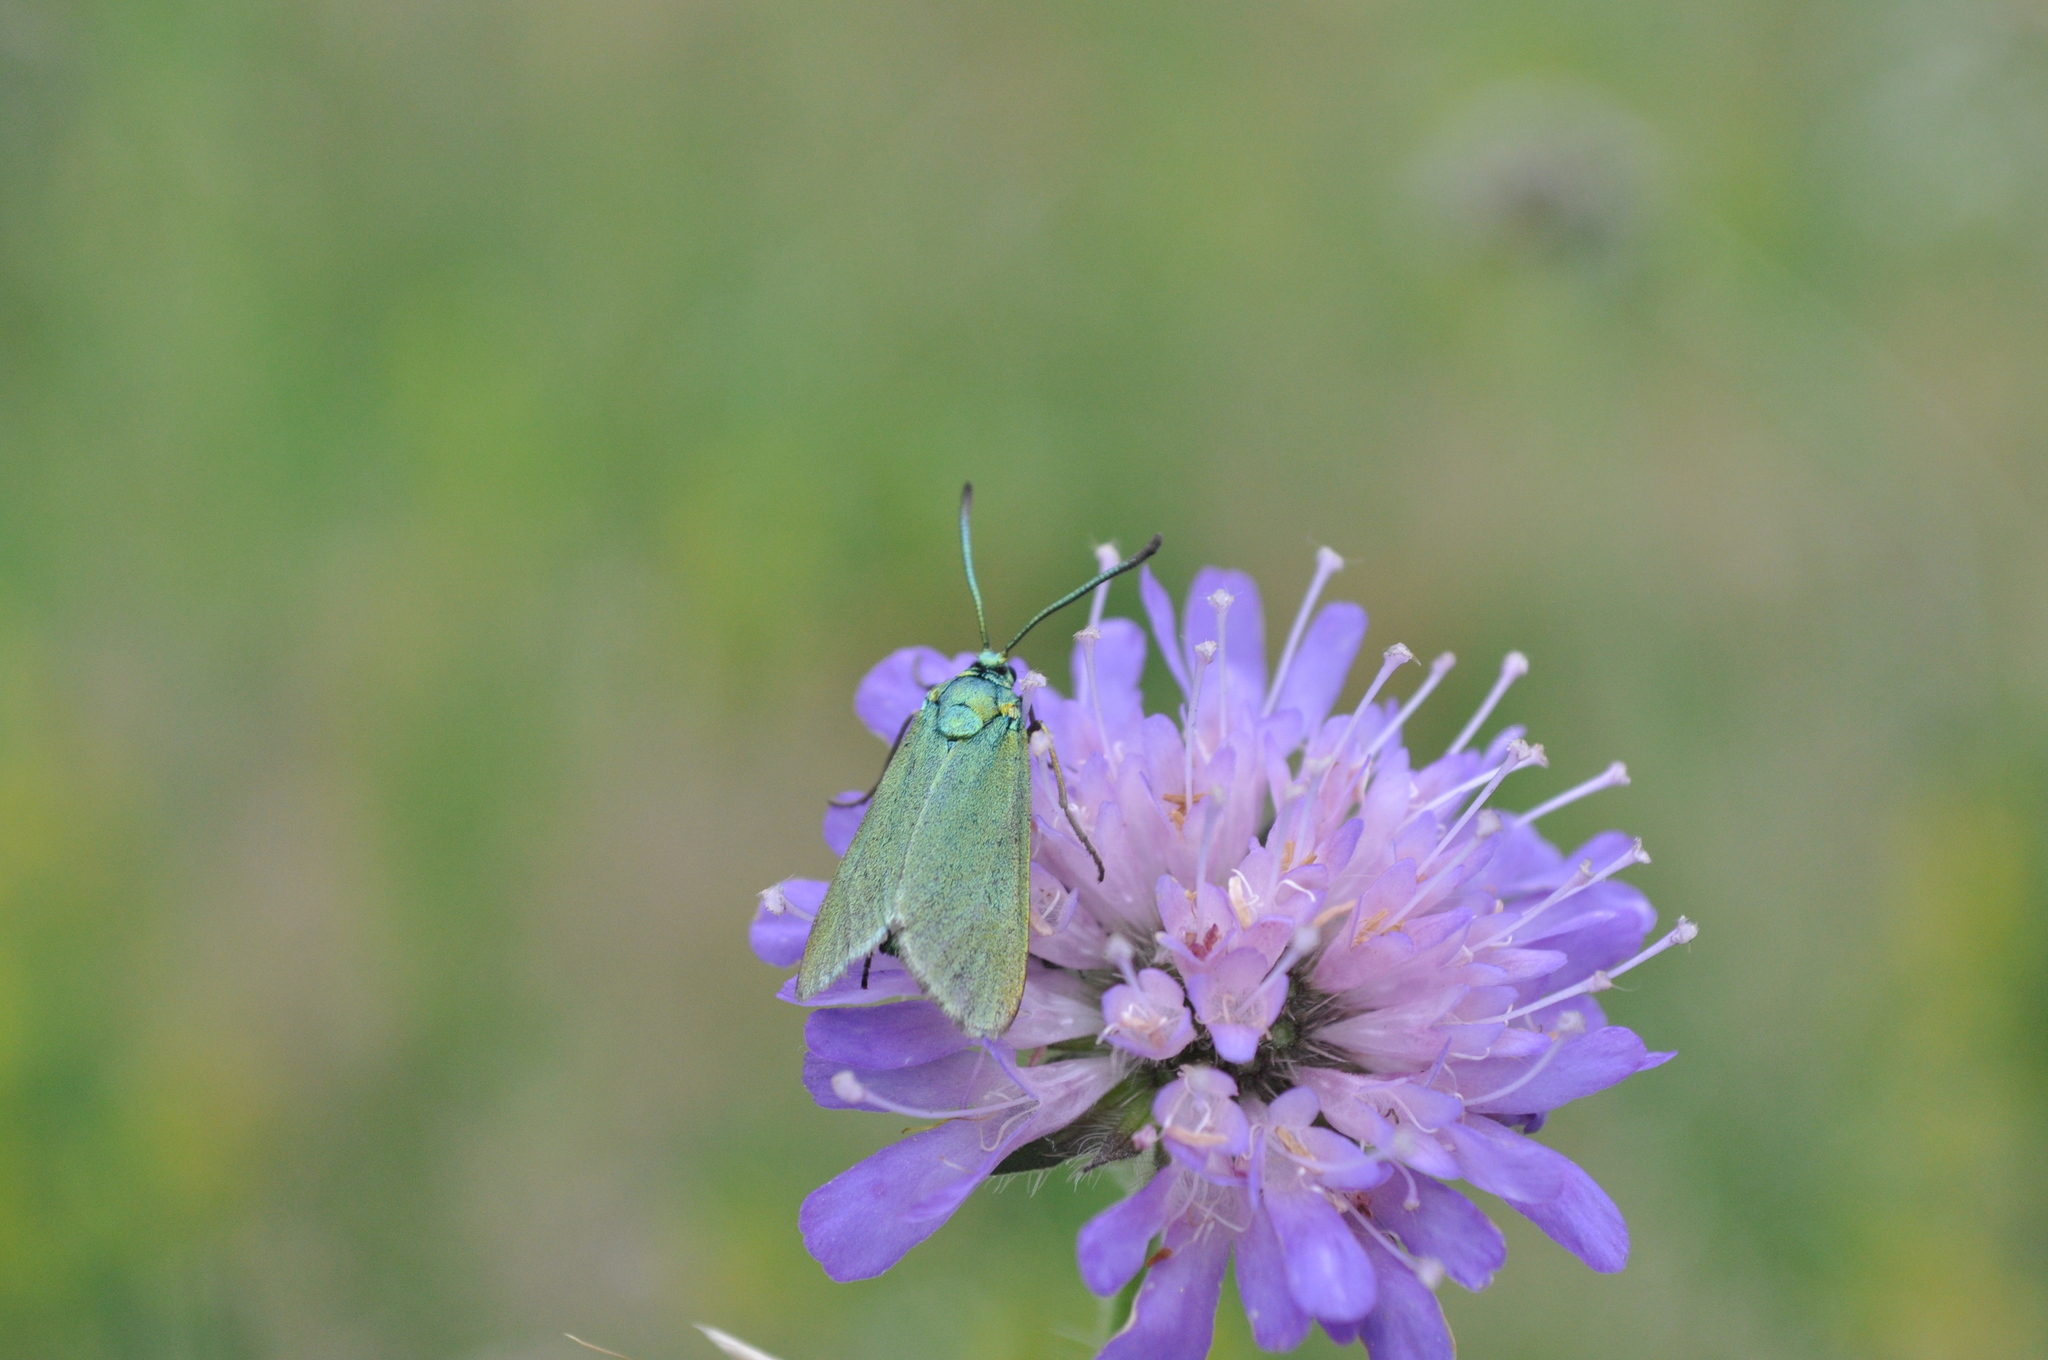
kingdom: Animalia
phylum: Arthropoda
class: Insecta
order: Lepidoptera
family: Zygaenidae
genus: Adscita
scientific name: Adscita statices
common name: Forester
